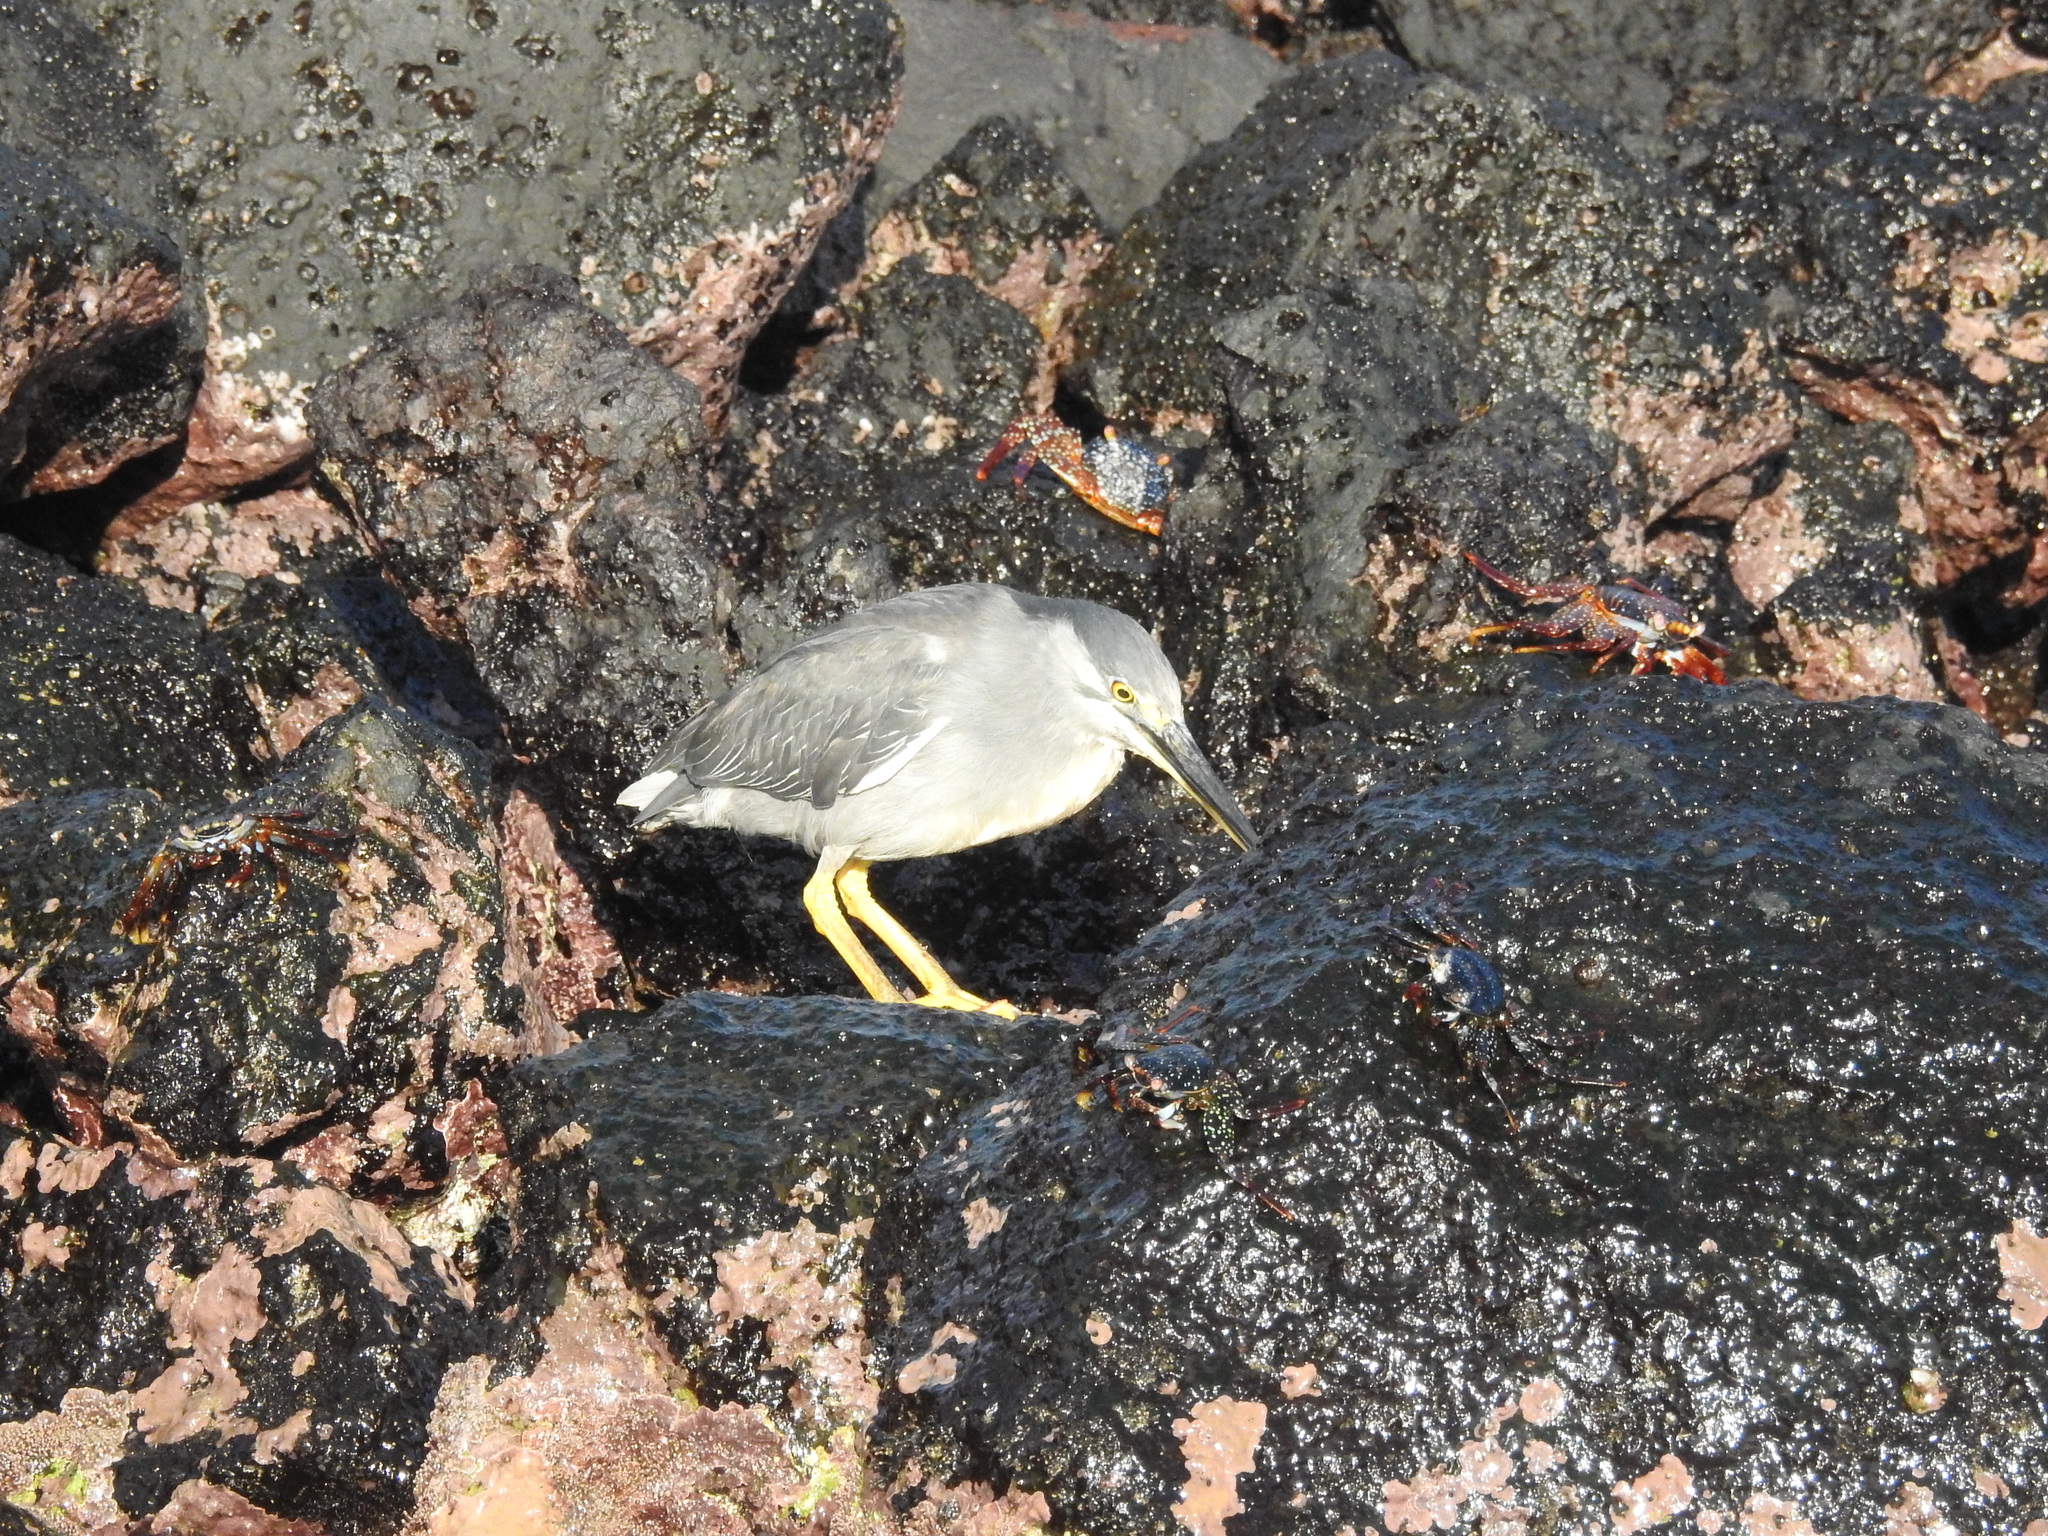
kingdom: Animalia
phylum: Chordata
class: Aves
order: Pelecaniformes
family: Ardeidae
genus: Butorides
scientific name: Butorides striata
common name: Striated heron
